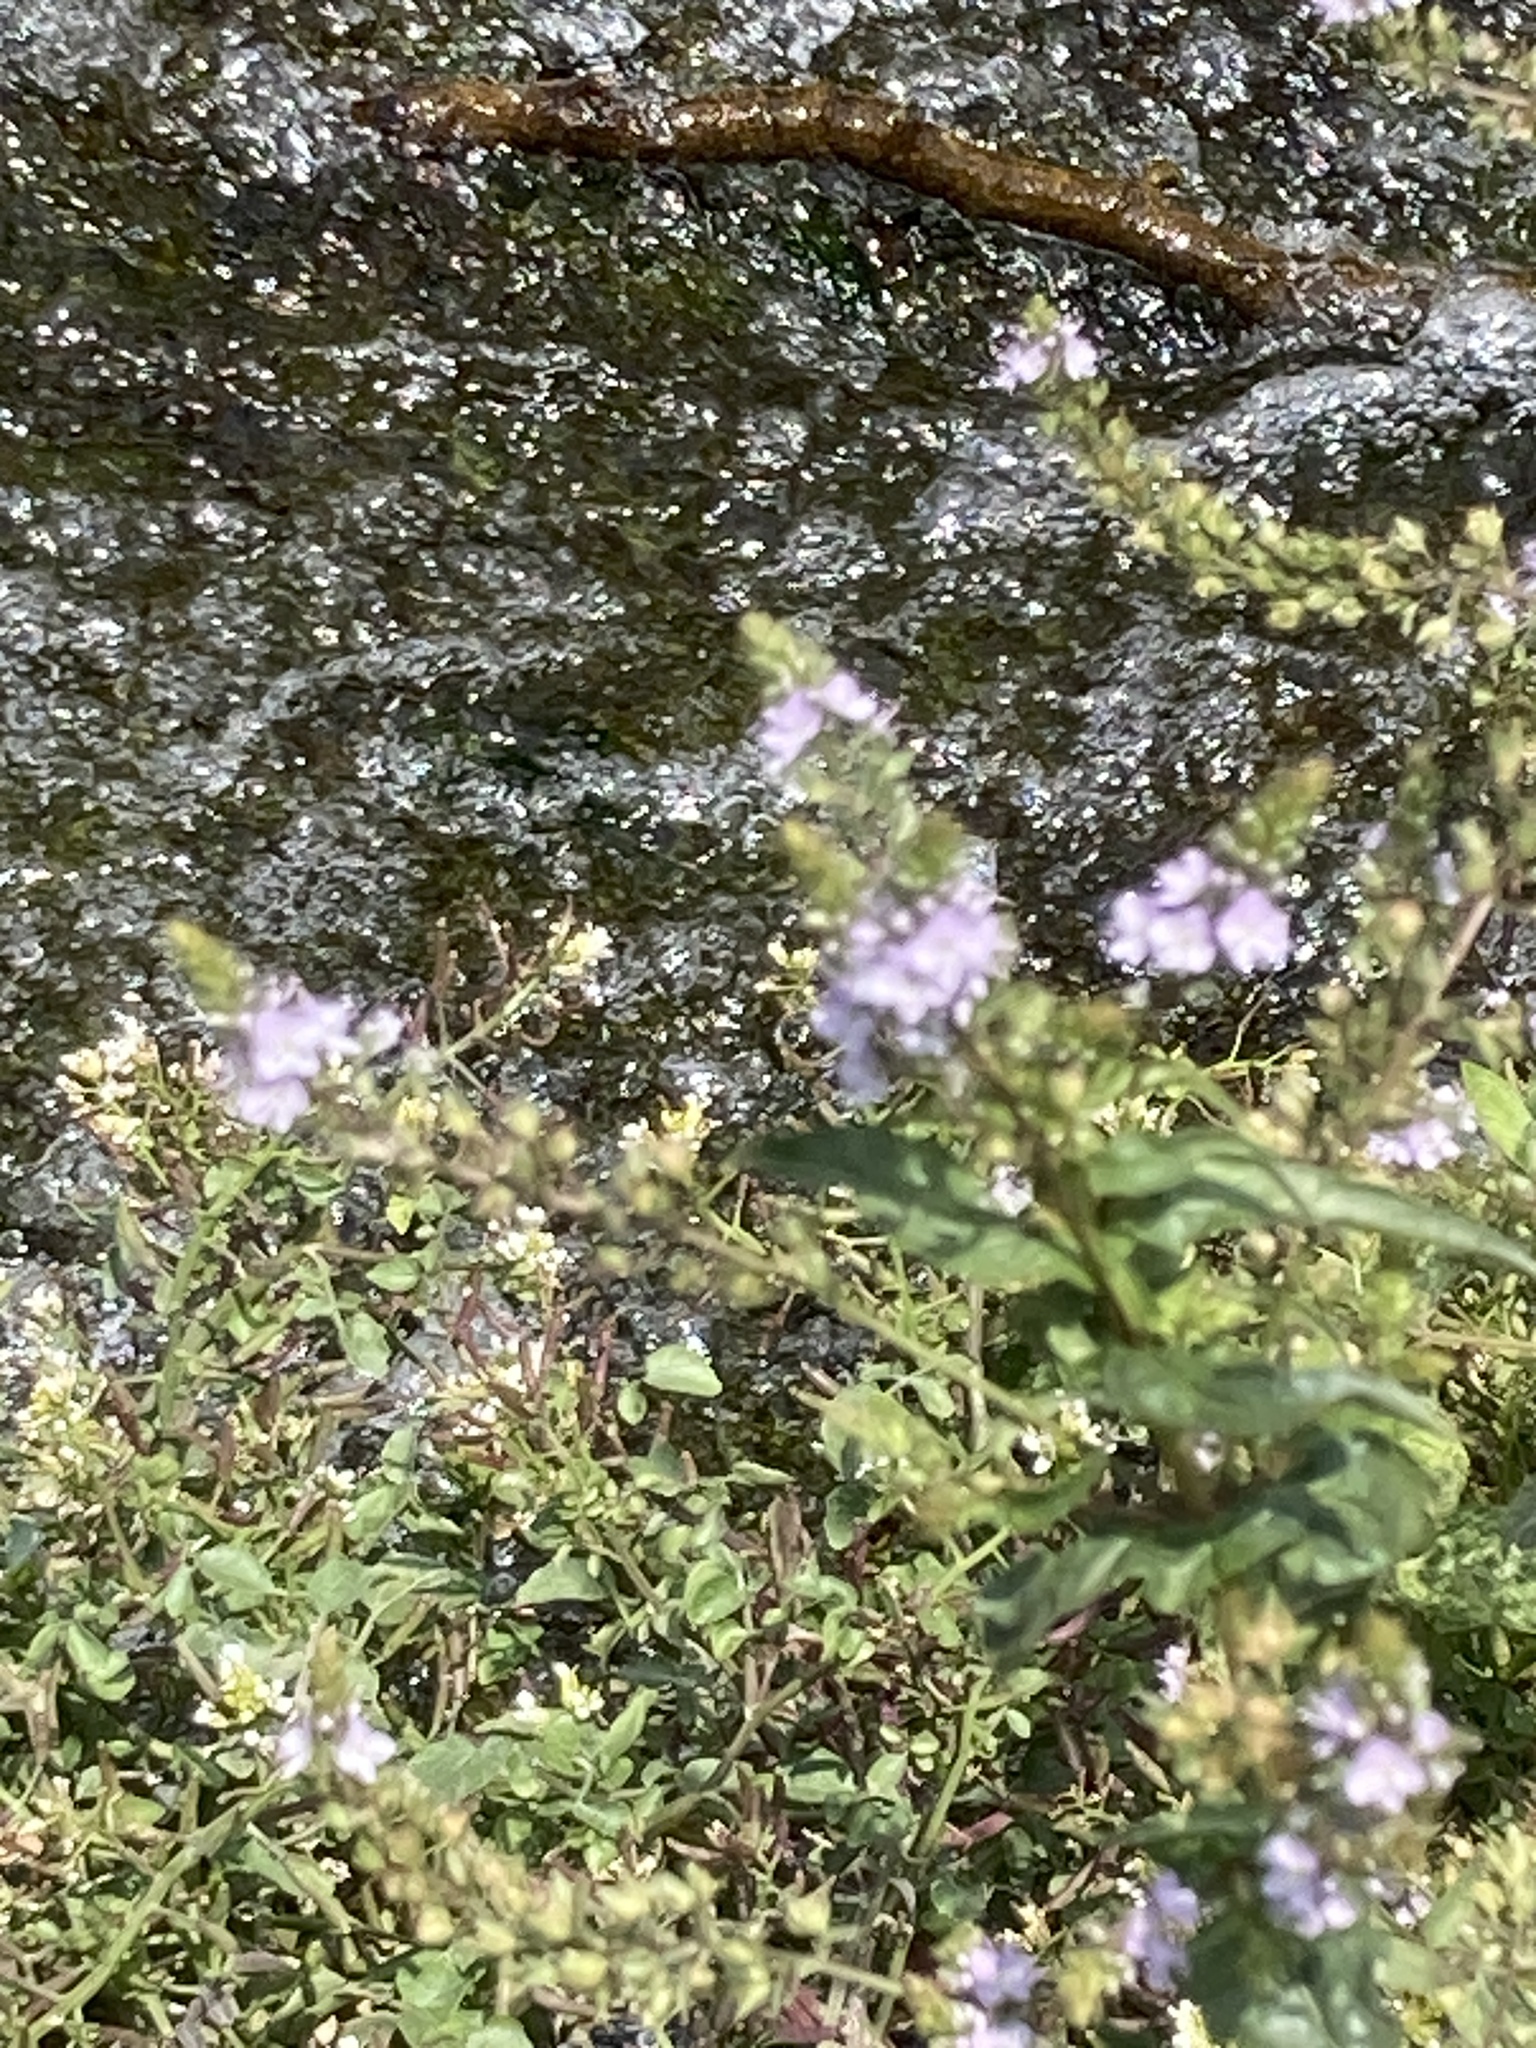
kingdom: Plantae
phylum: Tracheophyta
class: Magnoliopsida
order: Lamiales
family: Plantaginaceae
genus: Veronica
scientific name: Veronica anagallis-aquatica
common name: Water speedwell
